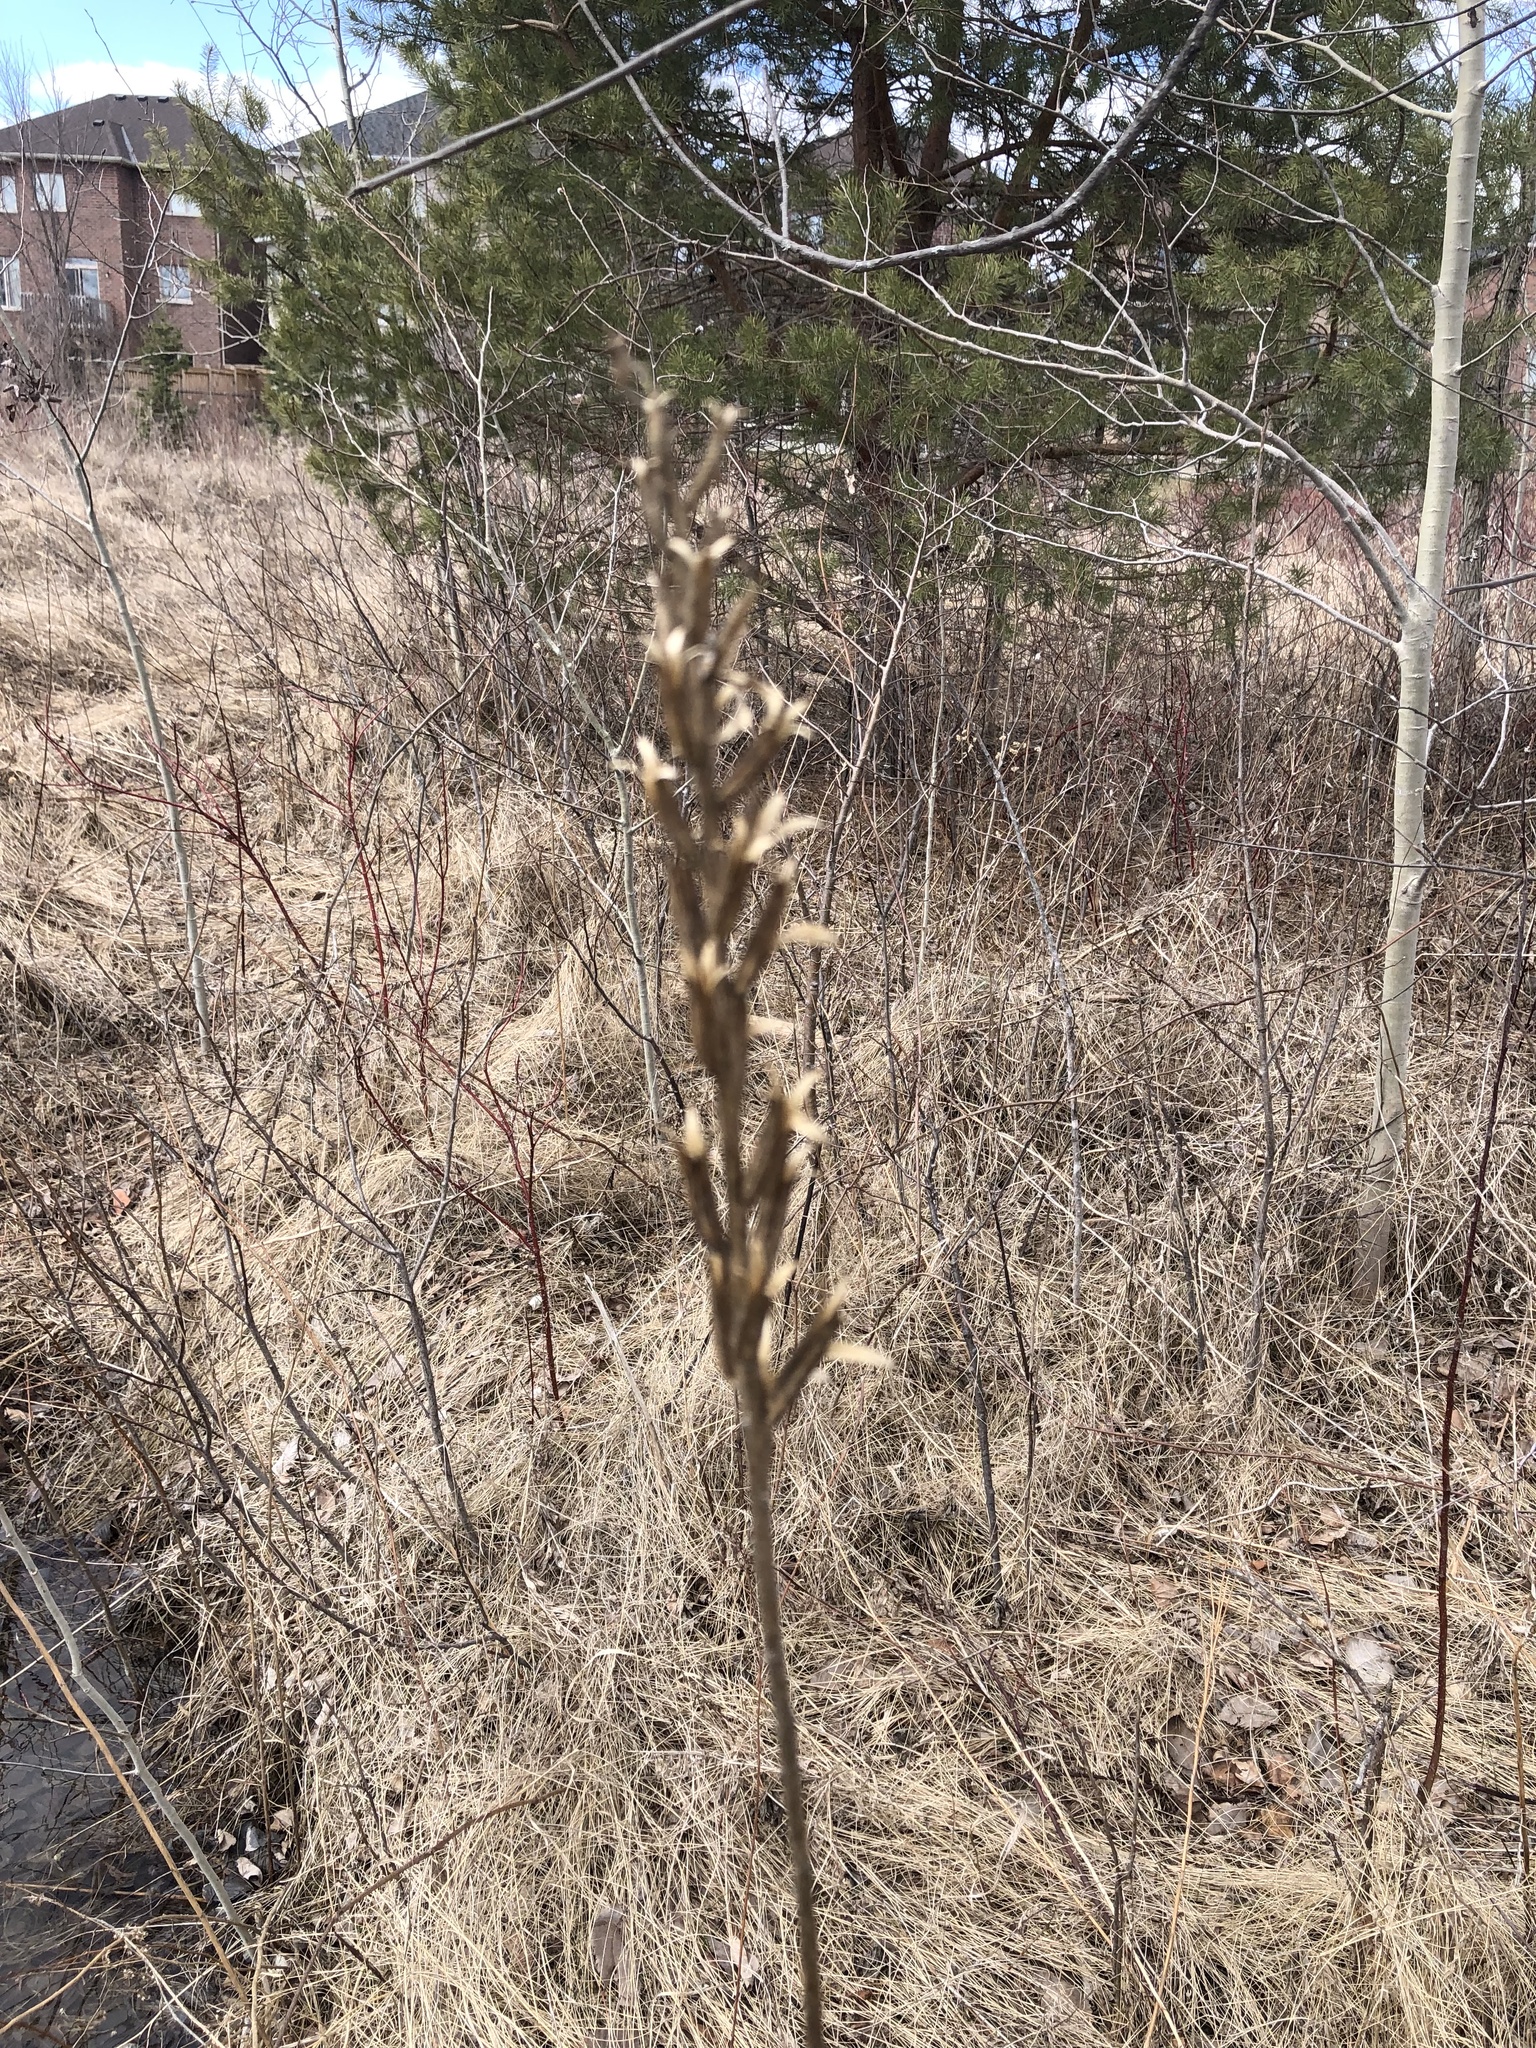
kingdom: Plantae
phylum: Tracheophyta
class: Magnoliopsida
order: Myrtales
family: Onagraceae
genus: Oenothera
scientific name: Oenothera biennis
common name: Common evening-primrose
